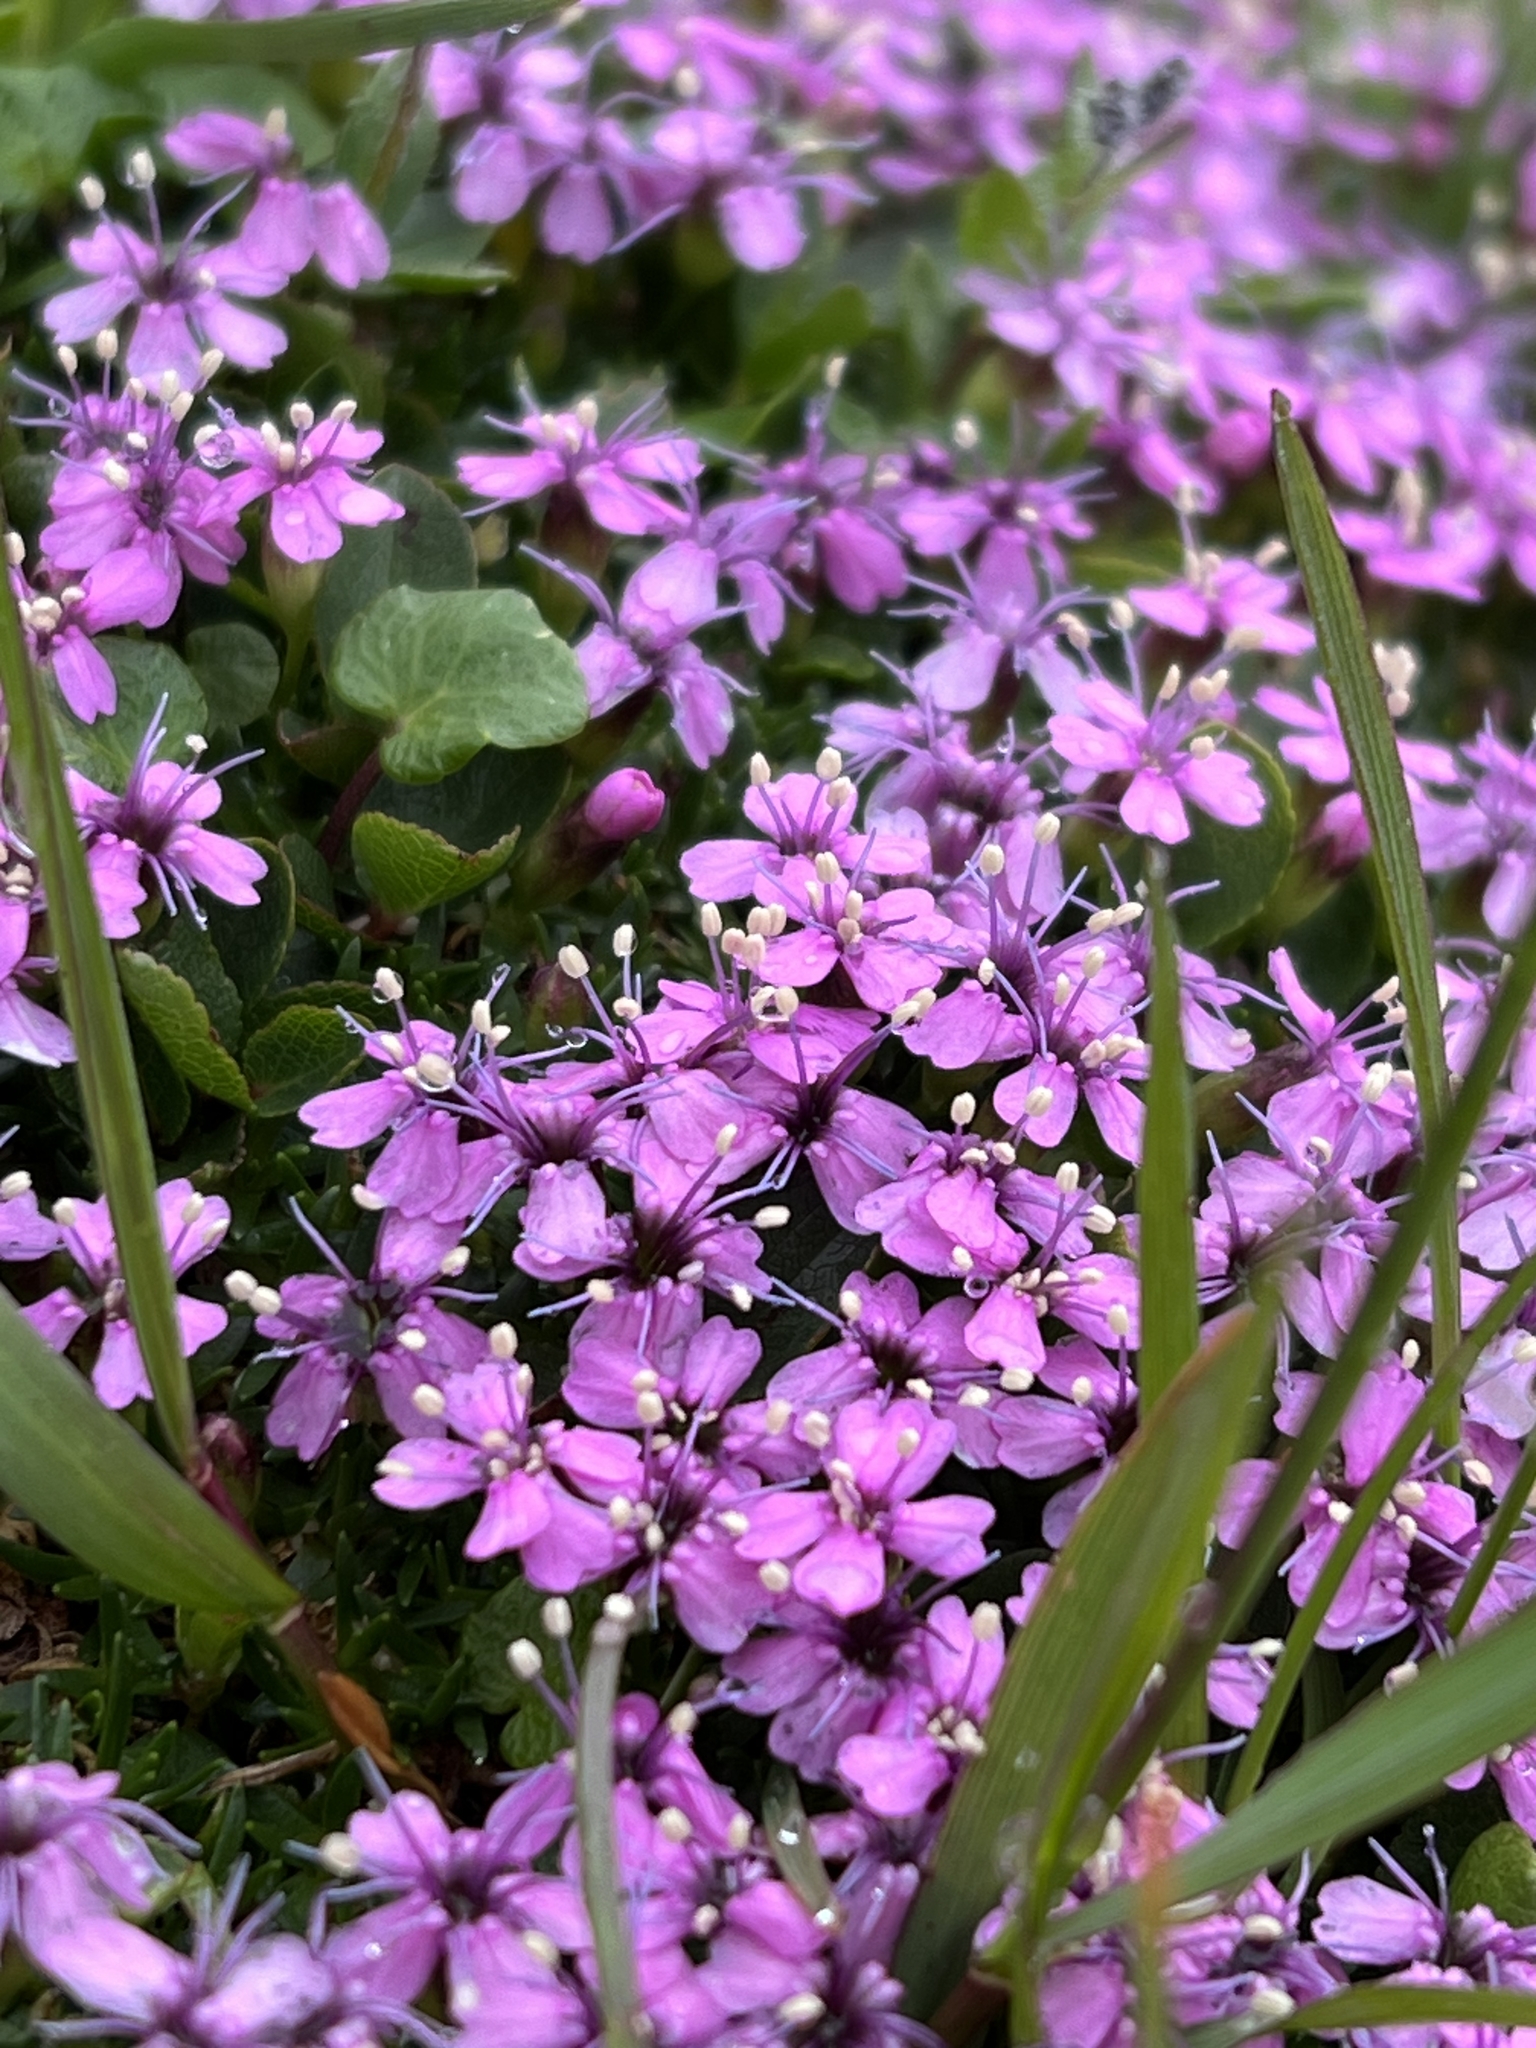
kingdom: Plantae
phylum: Tracheophyta
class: Magnoliopsida
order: Caryophyllales
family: Caryophyllaceae
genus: Silene
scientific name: Silene acaulis
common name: Moss campion
